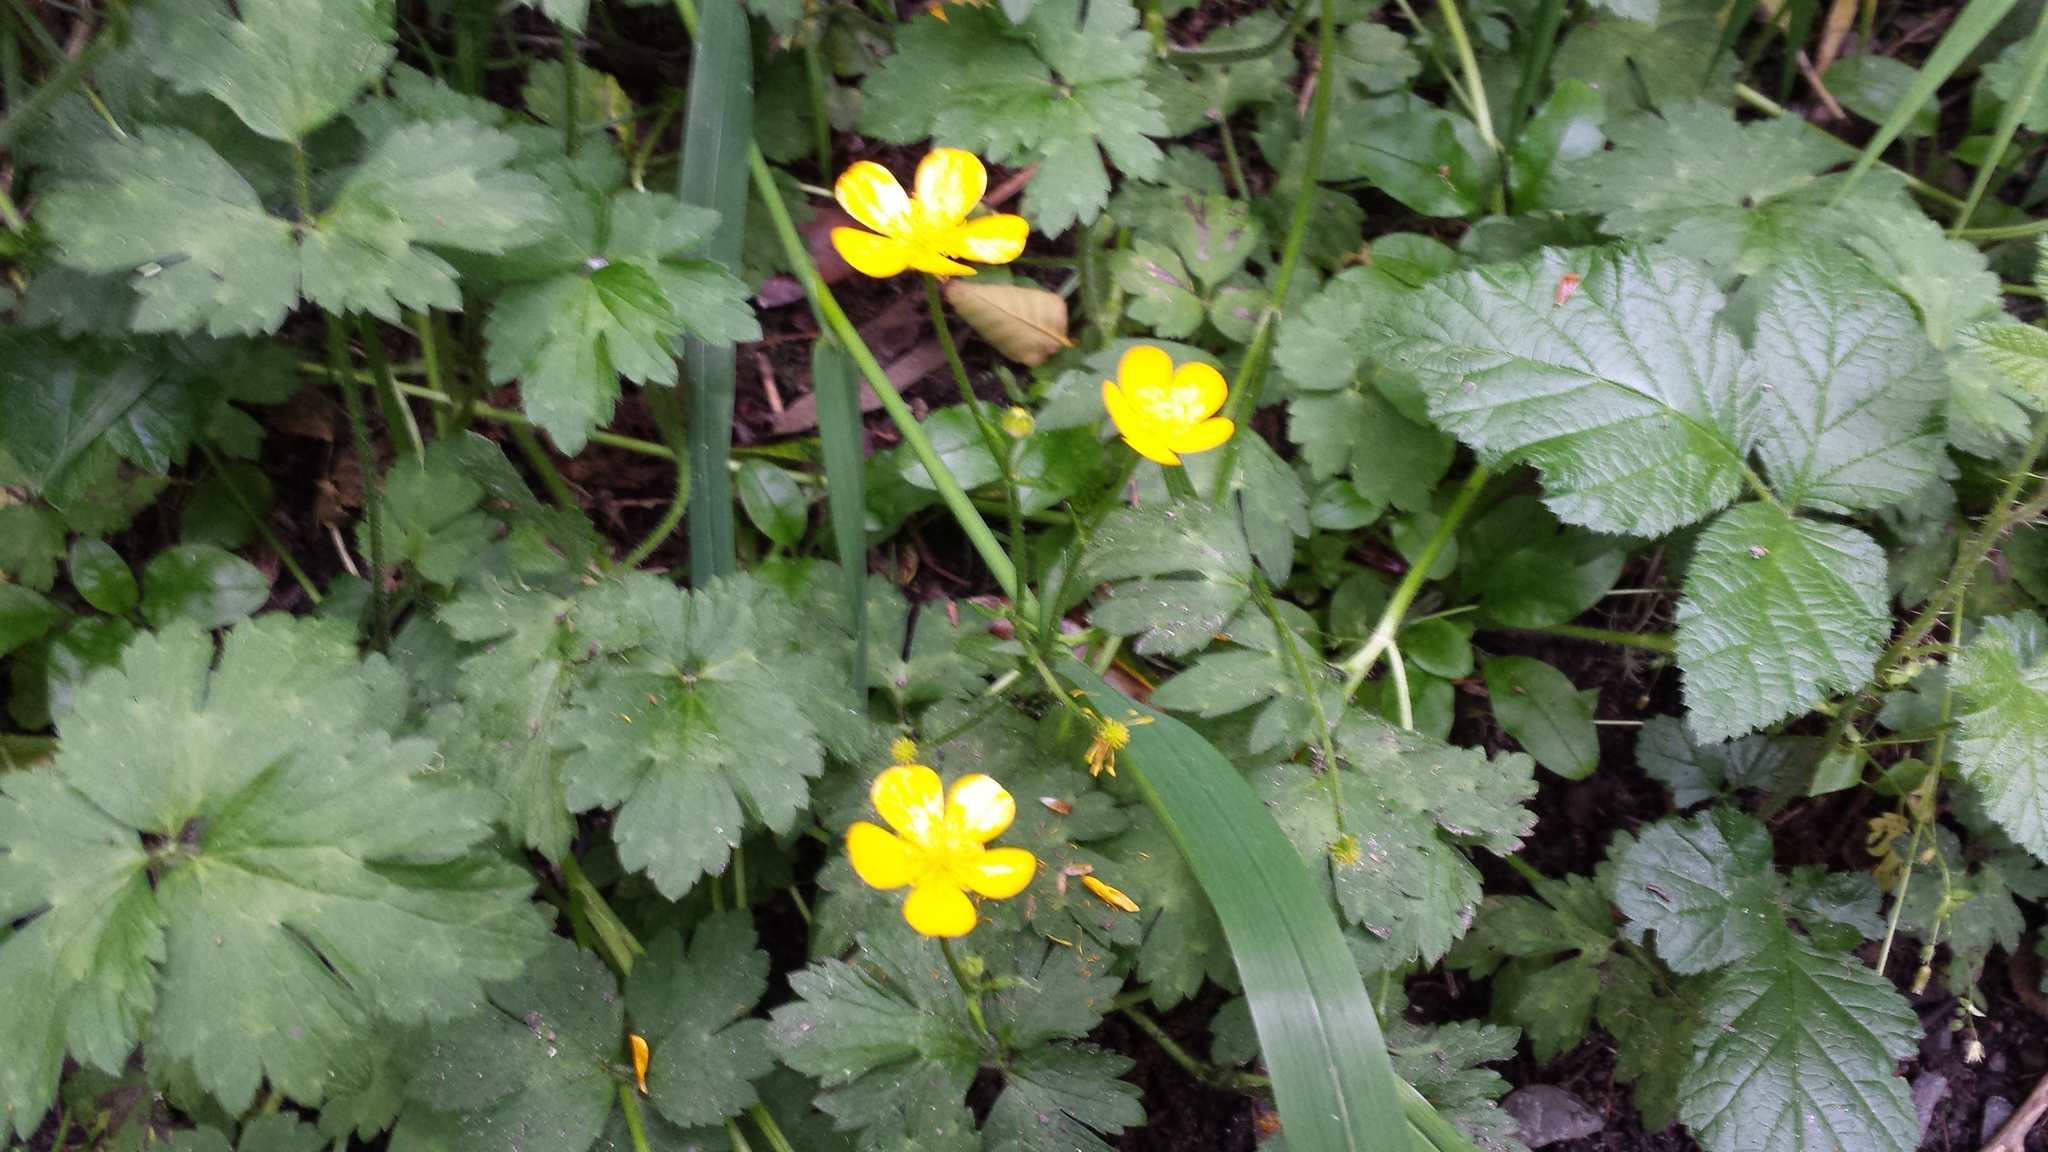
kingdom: Plantae
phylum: Tracheophyta
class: Magnoliopsida
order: Ranunculales
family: Ranunculaceae
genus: Ranunculus
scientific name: Ranunculus repens
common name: Creeping buttercup
